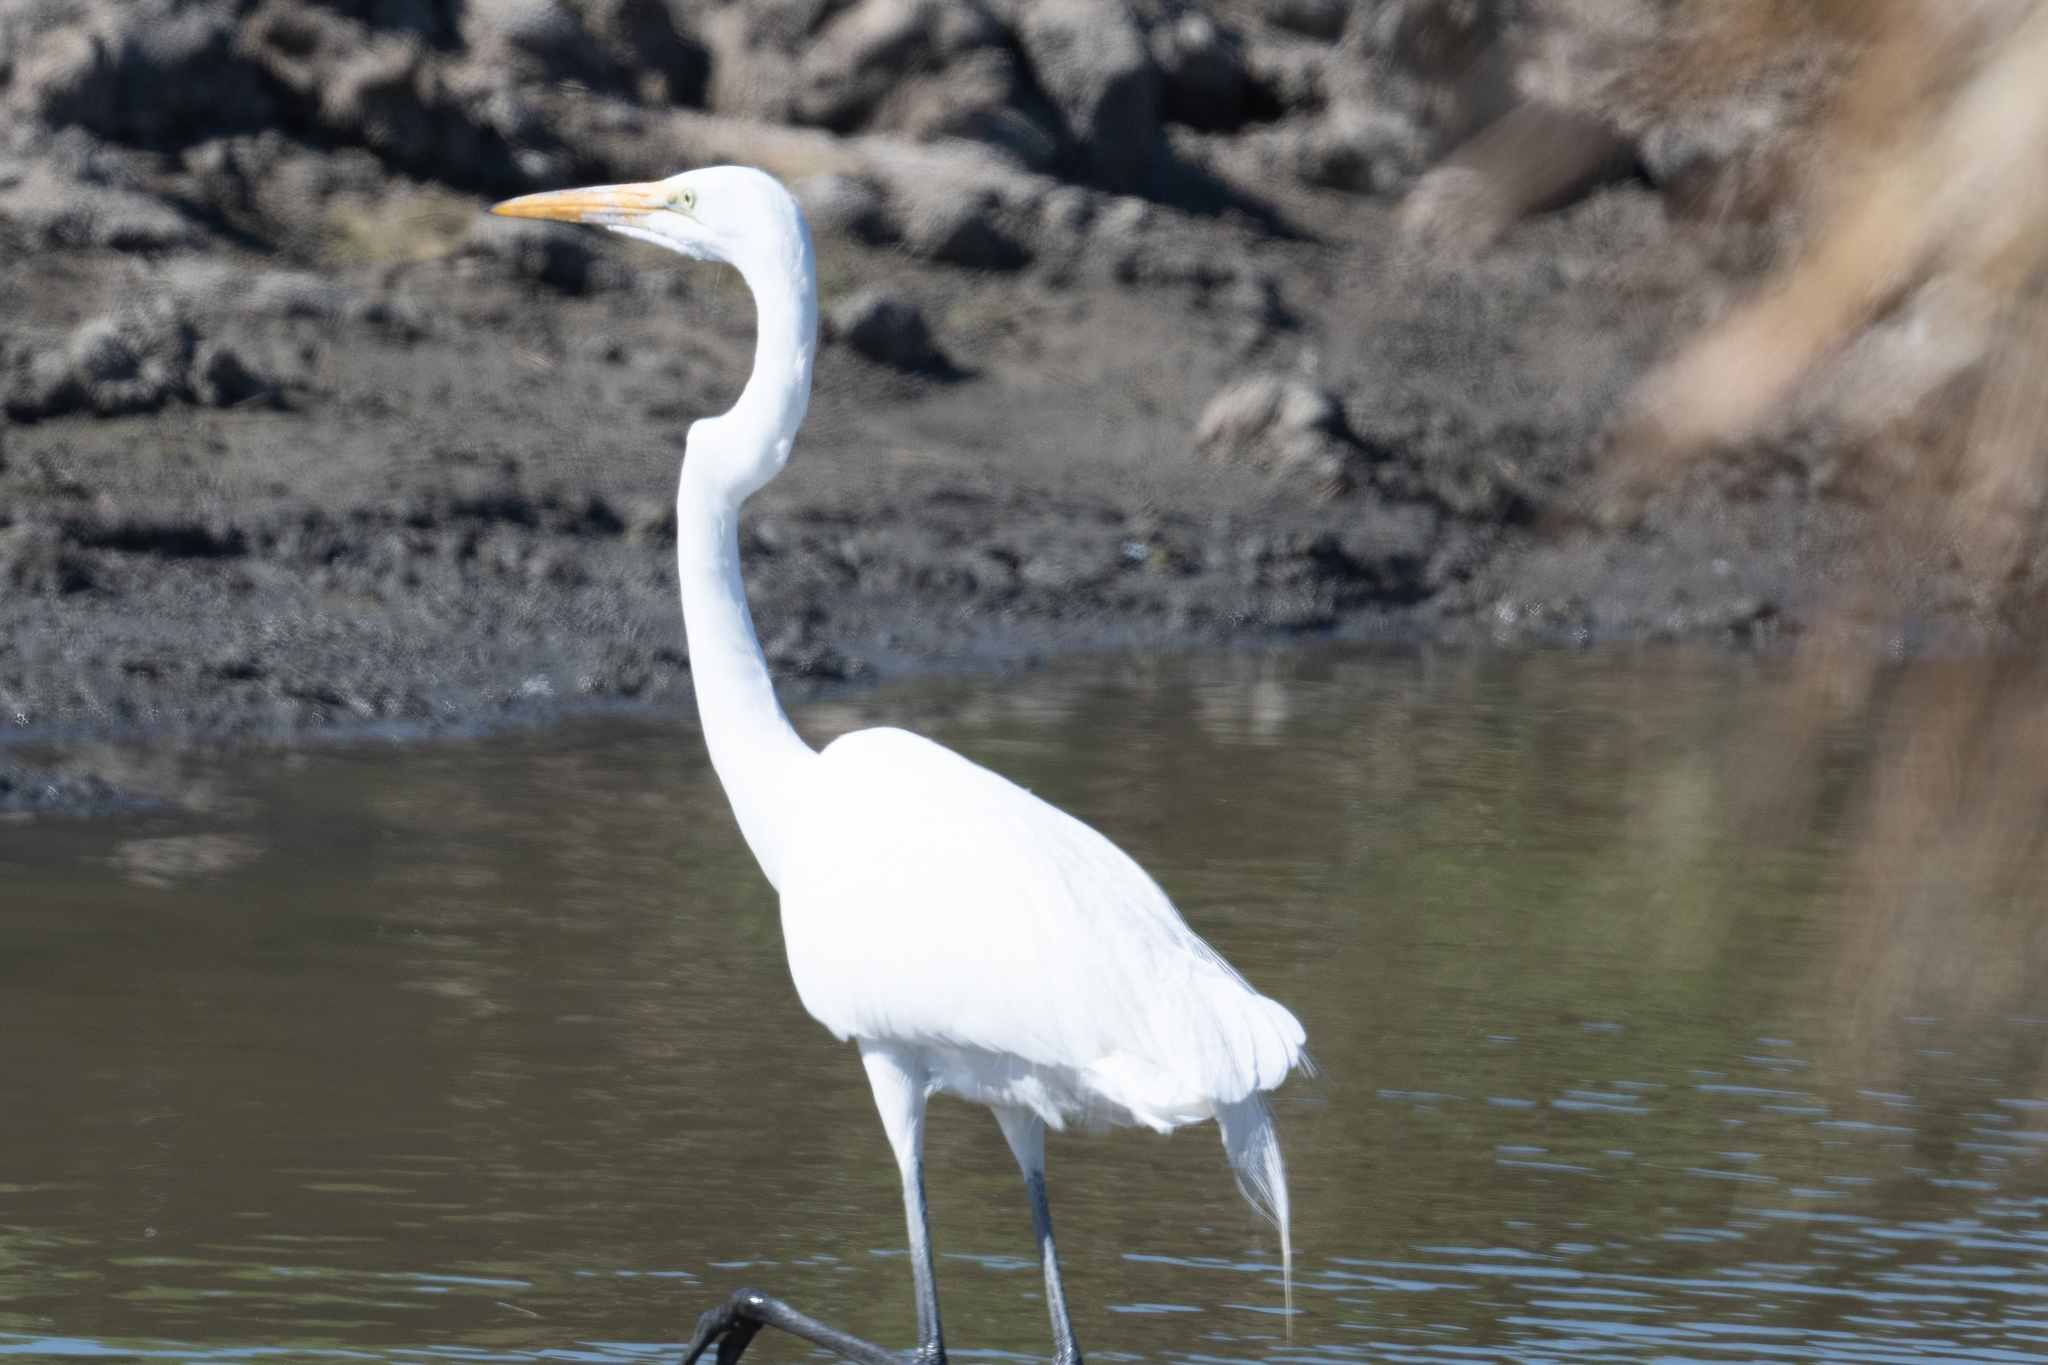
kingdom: Animalia
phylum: Chordata
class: Aves
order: Pelecaniformes
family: Ardeidae
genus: Ardea
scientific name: Ardea alba
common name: Great egret
